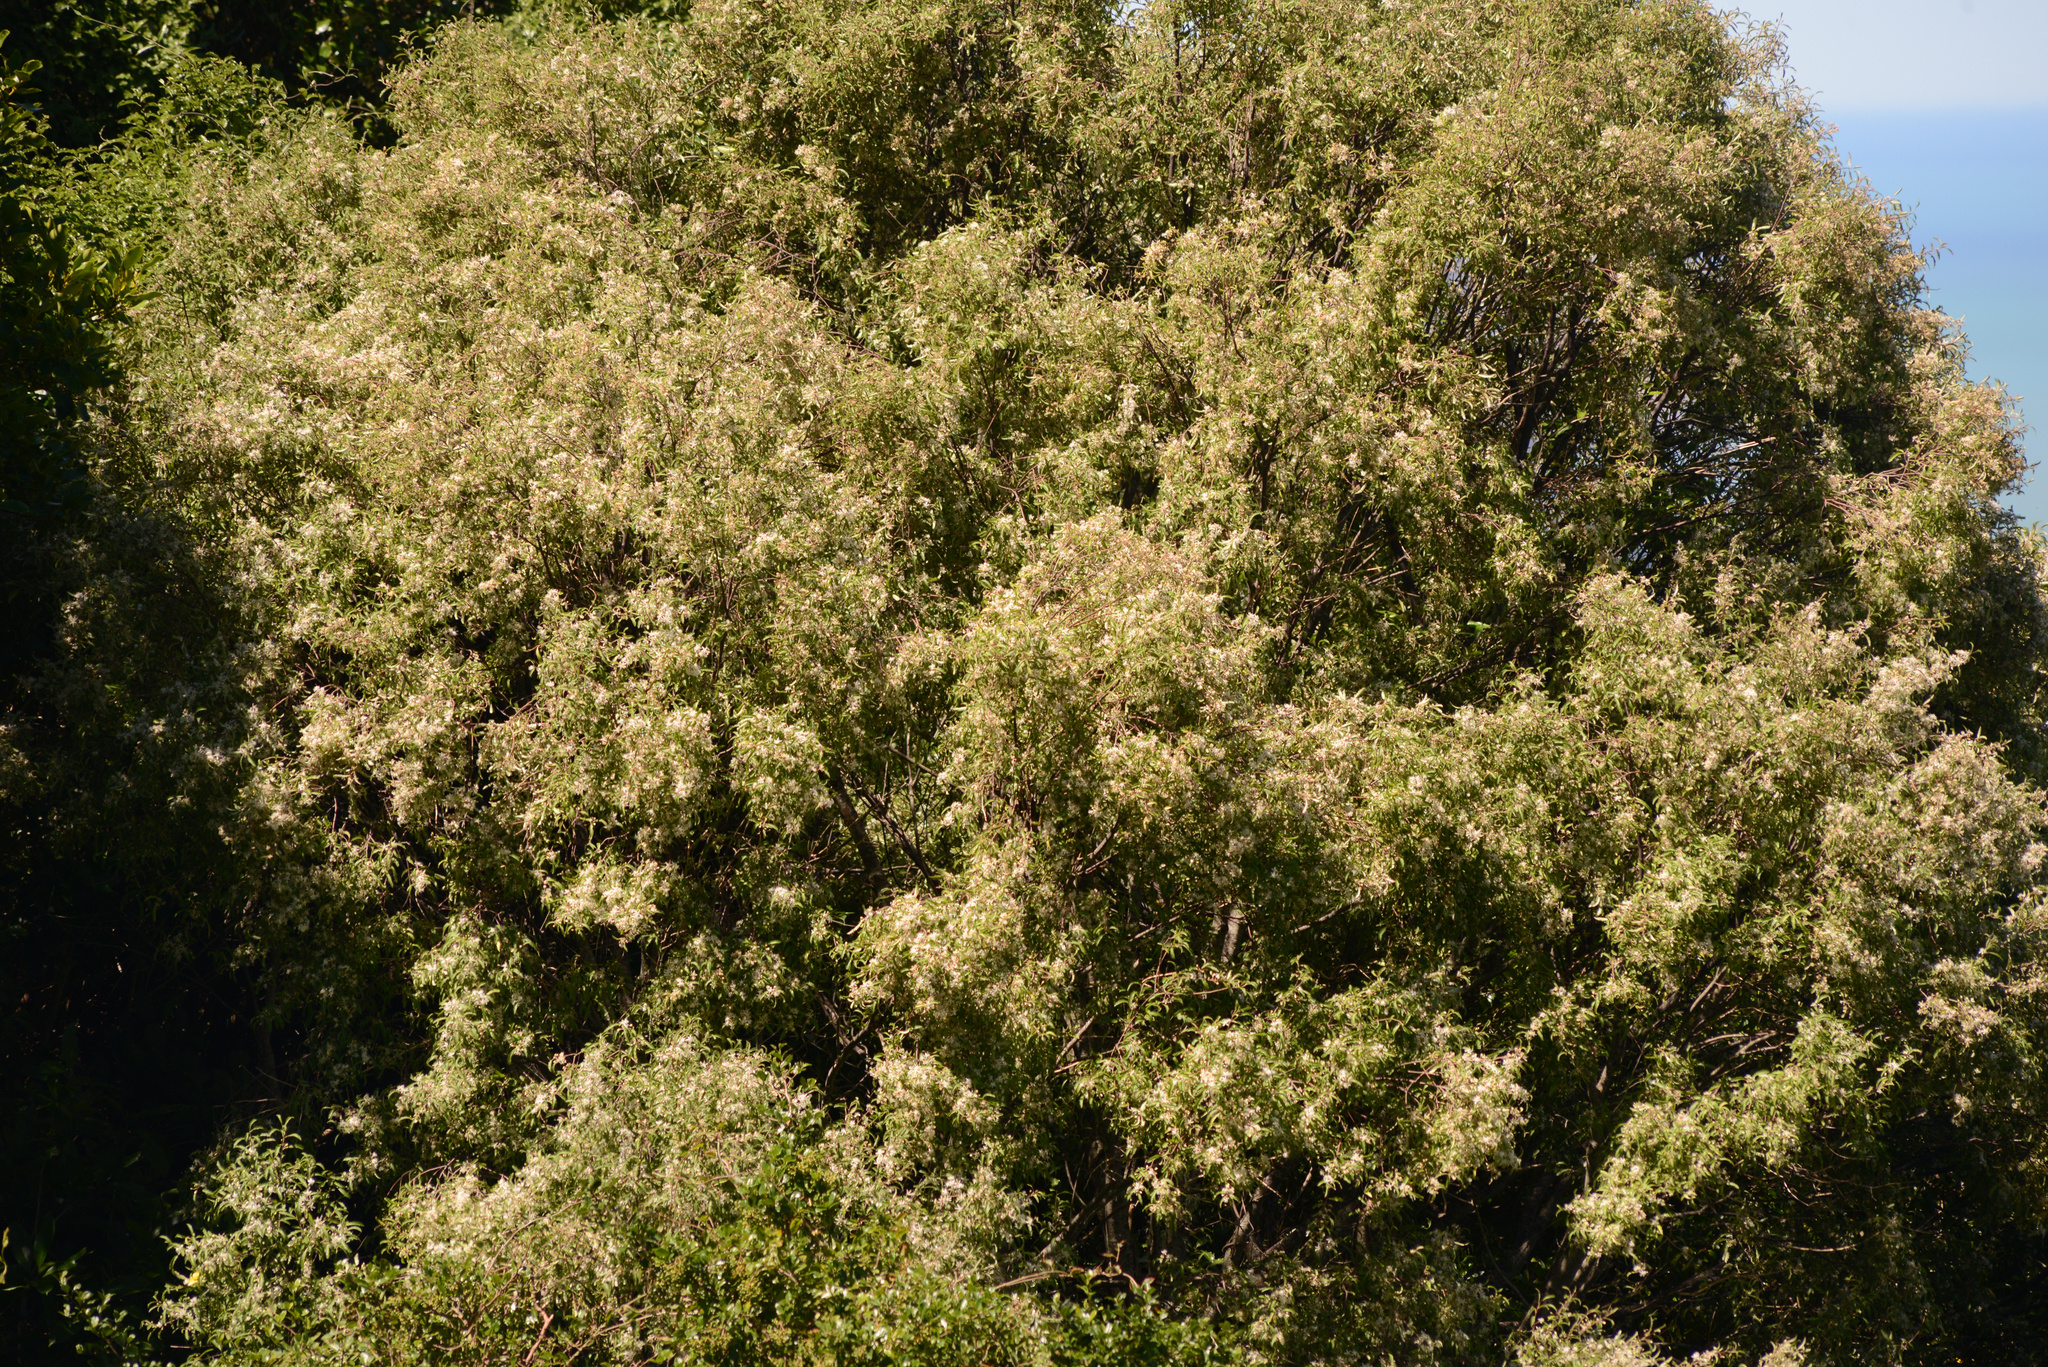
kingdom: Plantae
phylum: Tracheophyta
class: Magnoliopsida
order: Malvales
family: Malvaceae
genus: Hoheria
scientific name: Hoheria angustifolia
